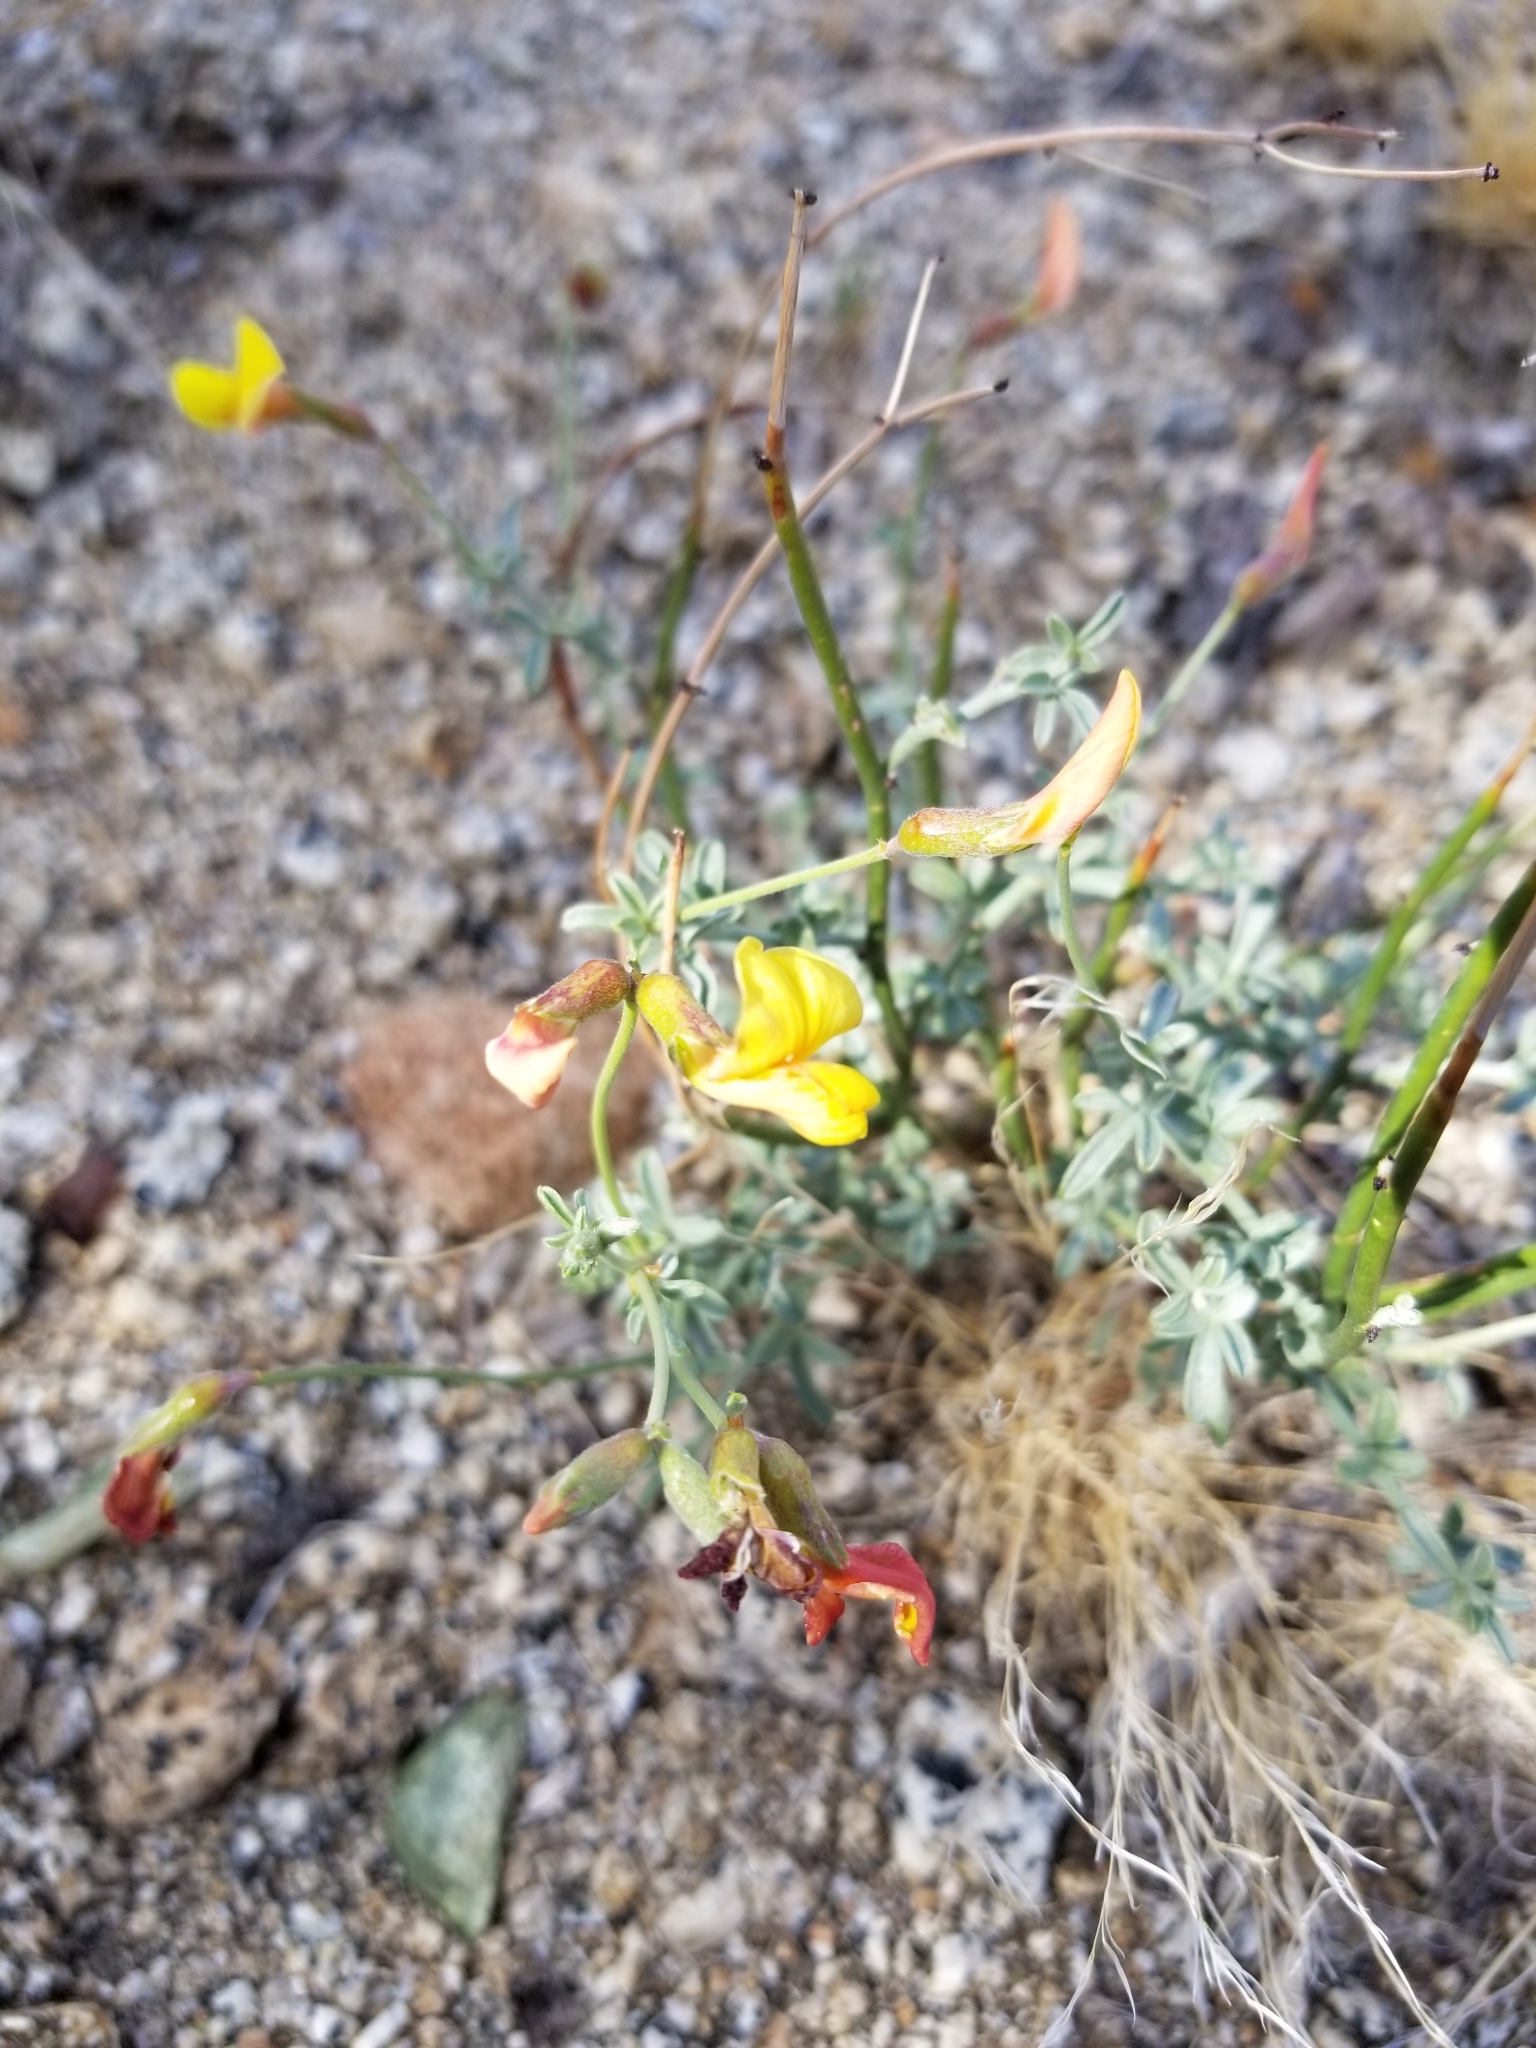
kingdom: Plantae
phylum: Tracheophyta
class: Magnoliopsida
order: Fabales
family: Fabaceae
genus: Acmispon
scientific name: Acmispon rigidus
